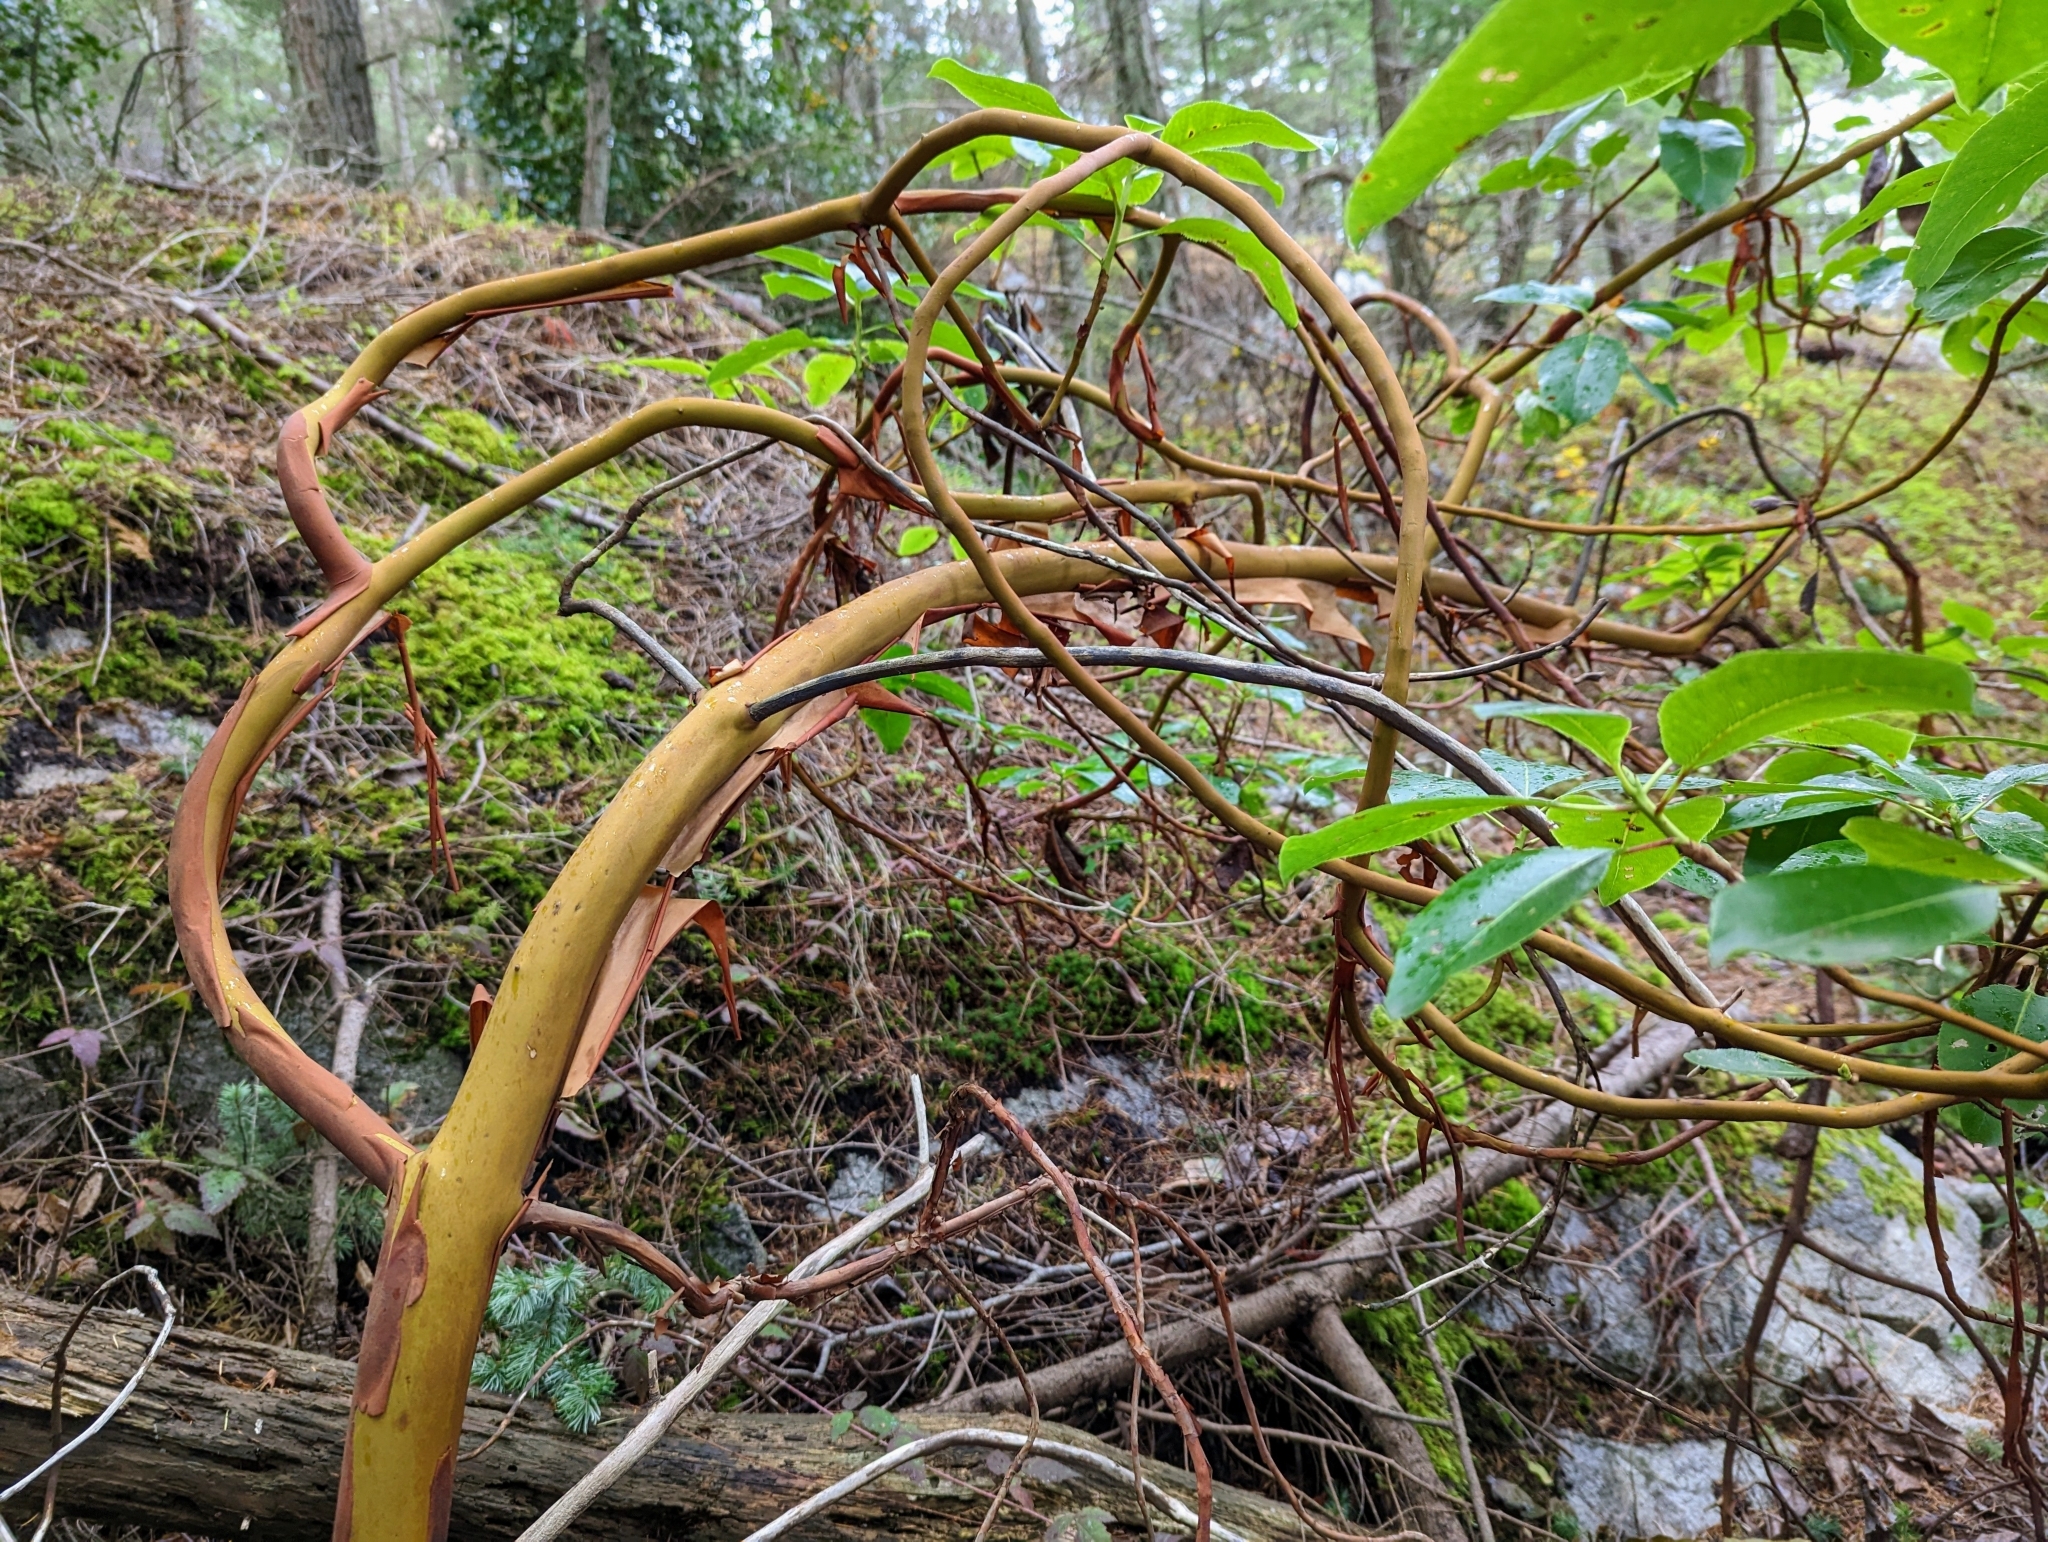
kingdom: Plantae
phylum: Tracheophyta
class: Magnoliopsida
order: Ericales
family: Ericaceae
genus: Arbutus
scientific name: Arbutus menziesii
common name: Pacific madrone
